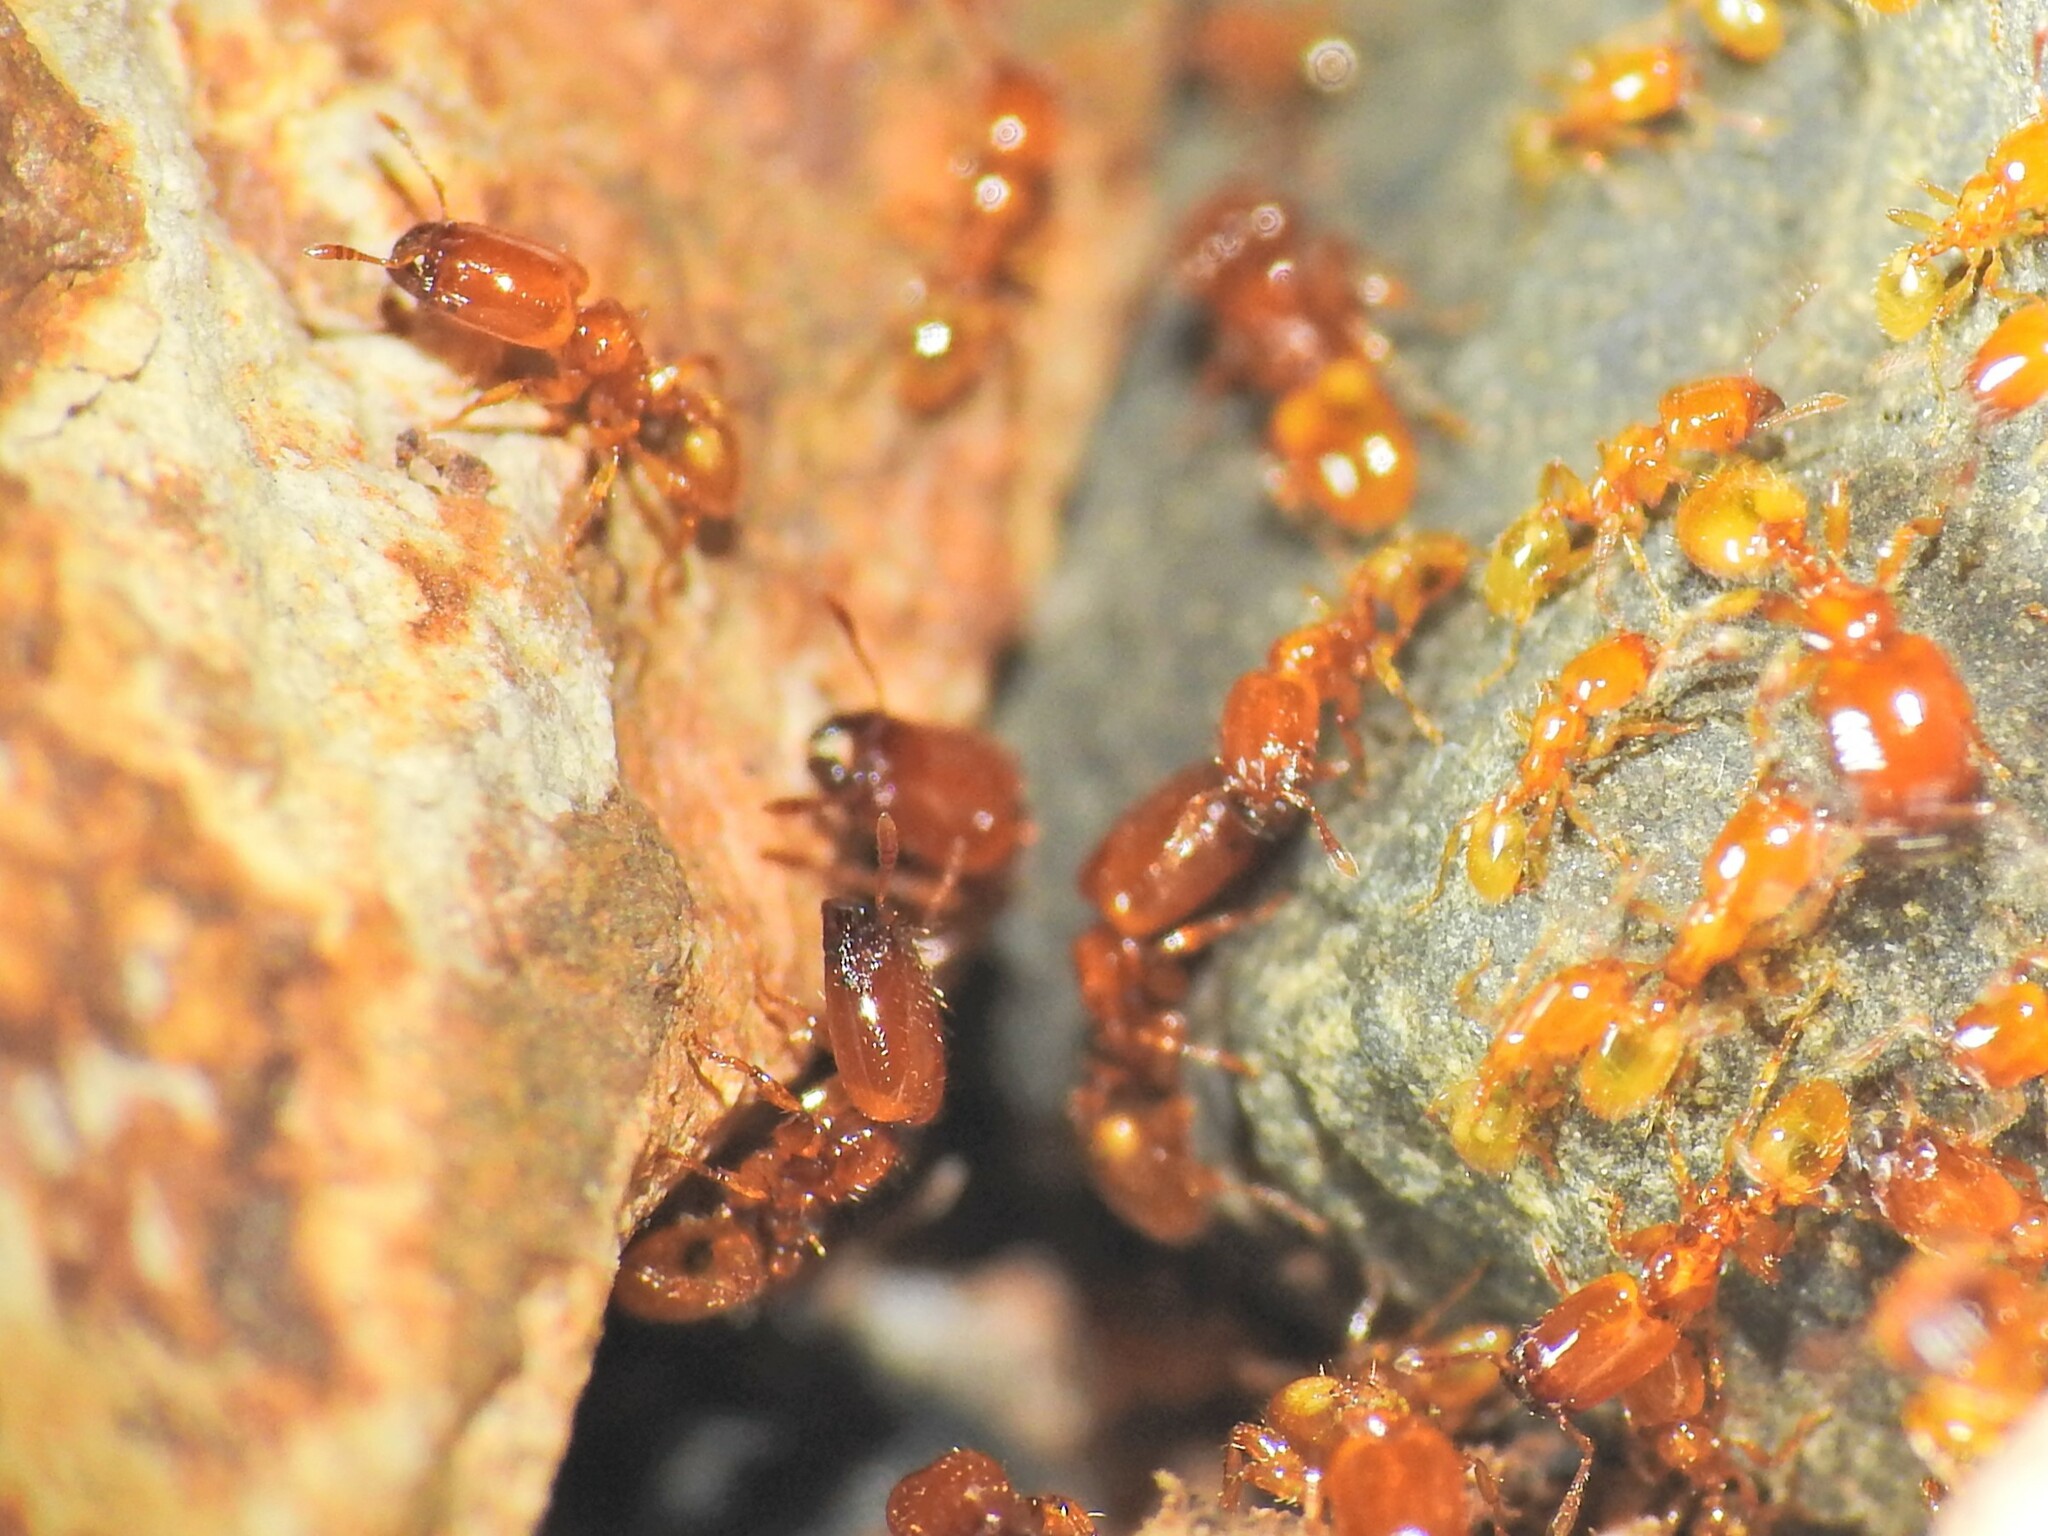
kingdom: Animalia
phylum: Arthropoda
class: Insecta
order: Hymenoptera
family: Formicidae
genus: Pheidole
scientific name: Pheidole
